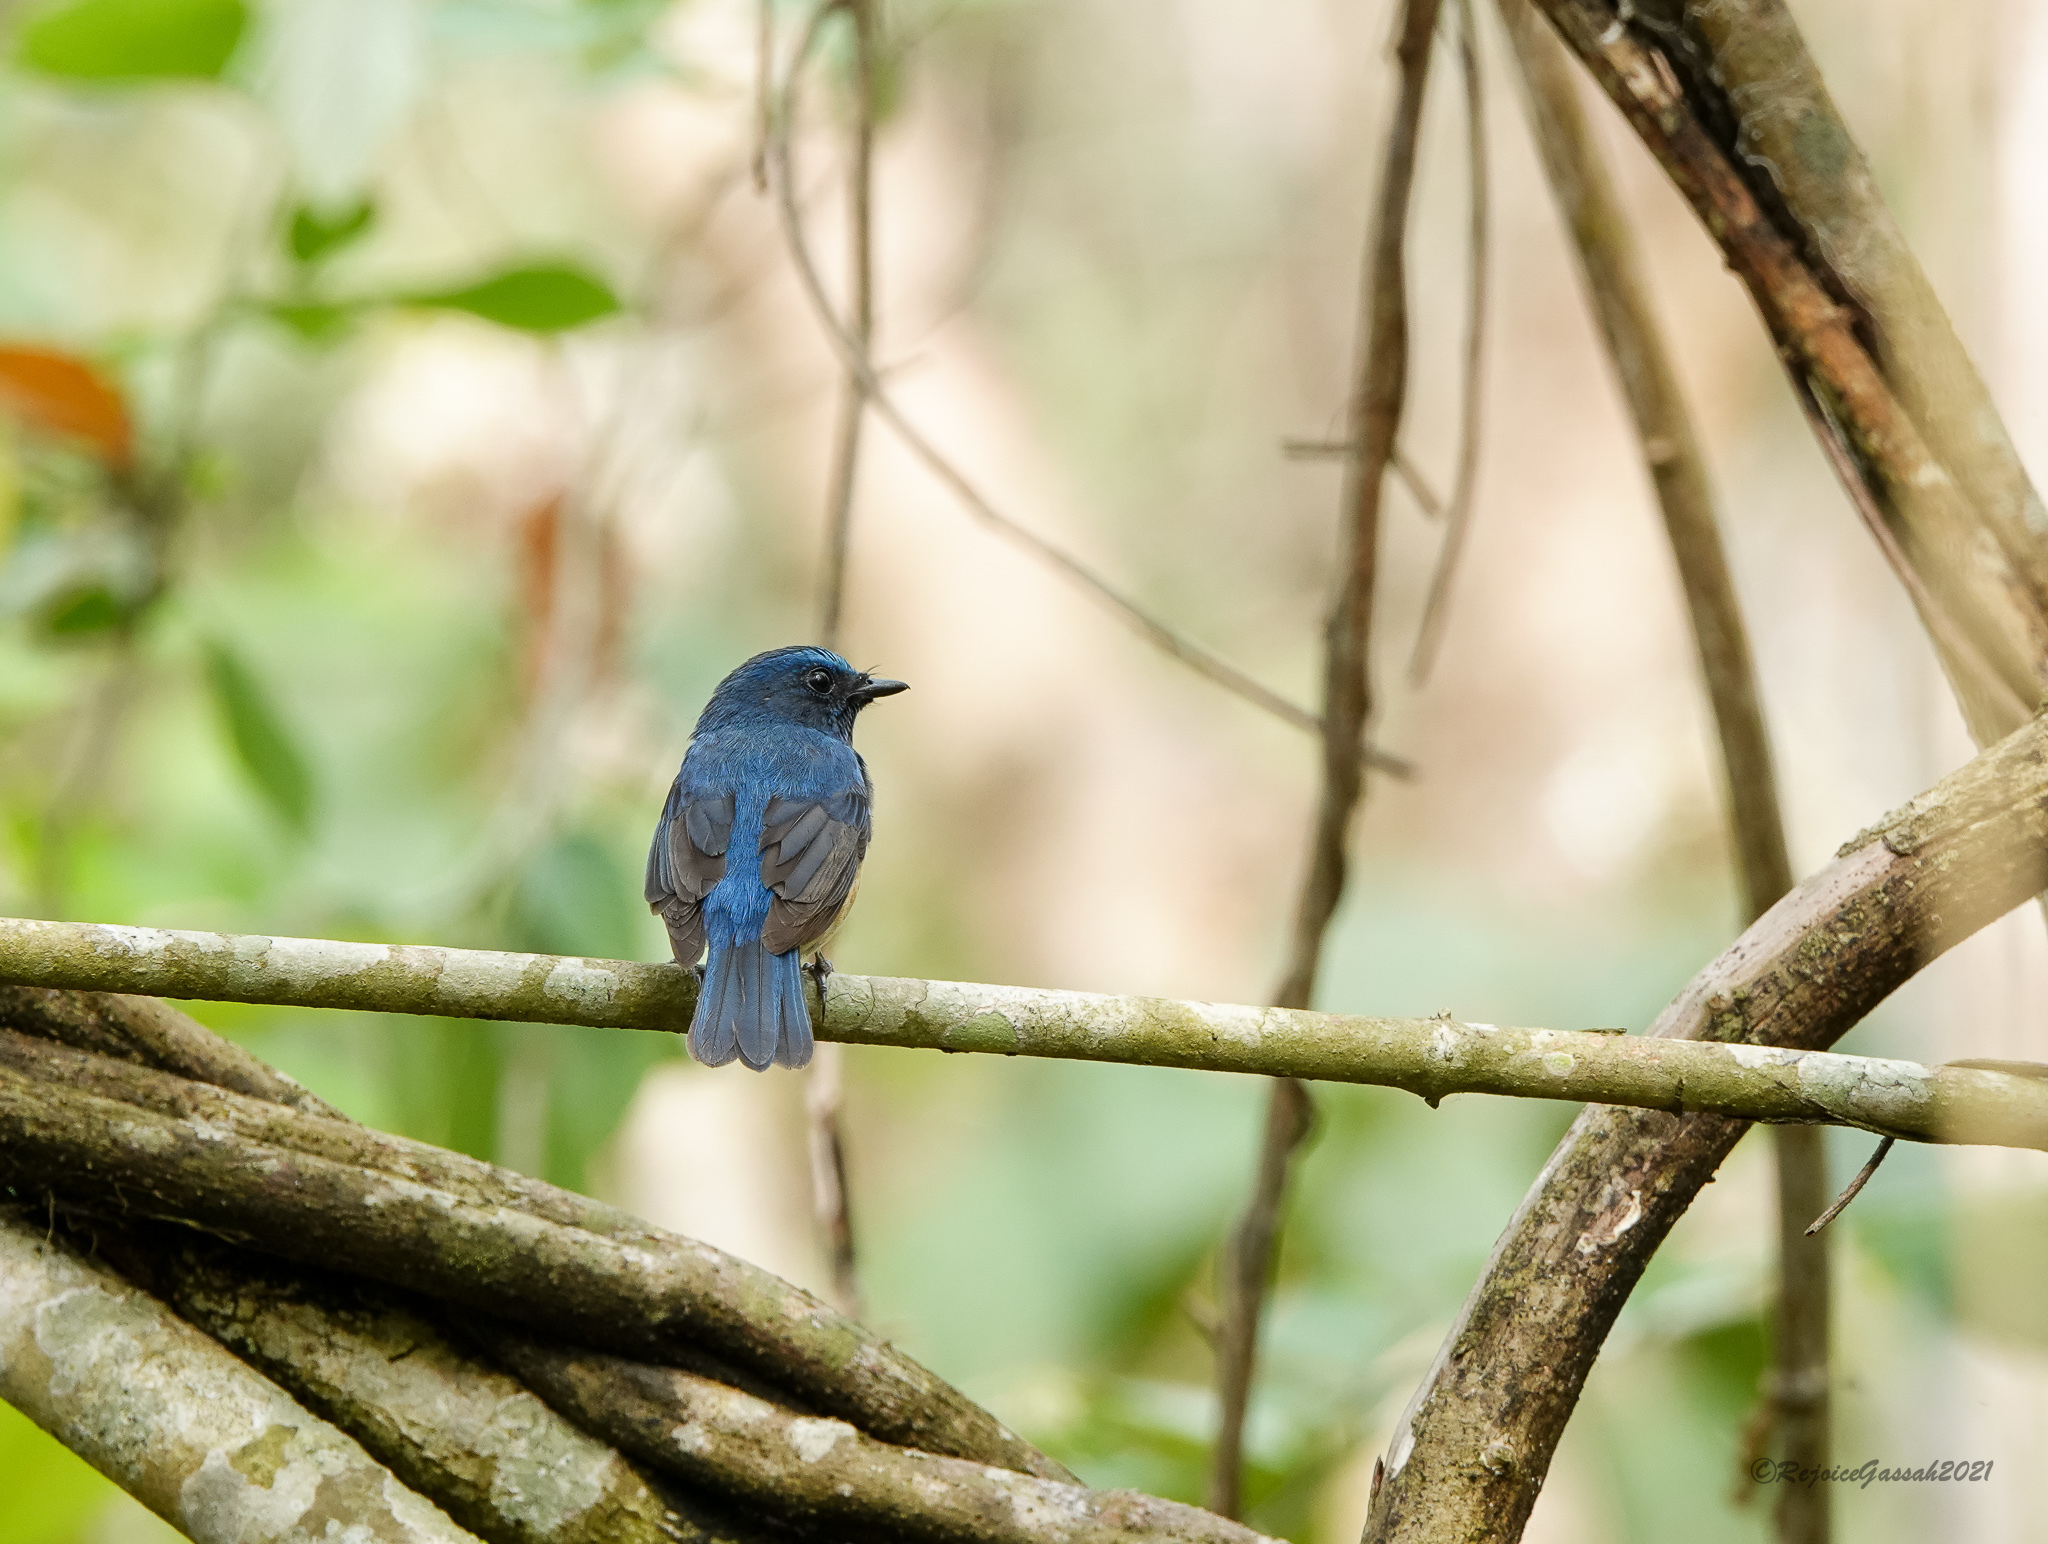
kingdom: Animalia
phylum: Chordata
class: Aves
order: Passeriformes
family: Muscicapidae
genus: Cyornis
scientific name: Cyornis rubeculoides
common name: Blue-throated blue flycatcher
